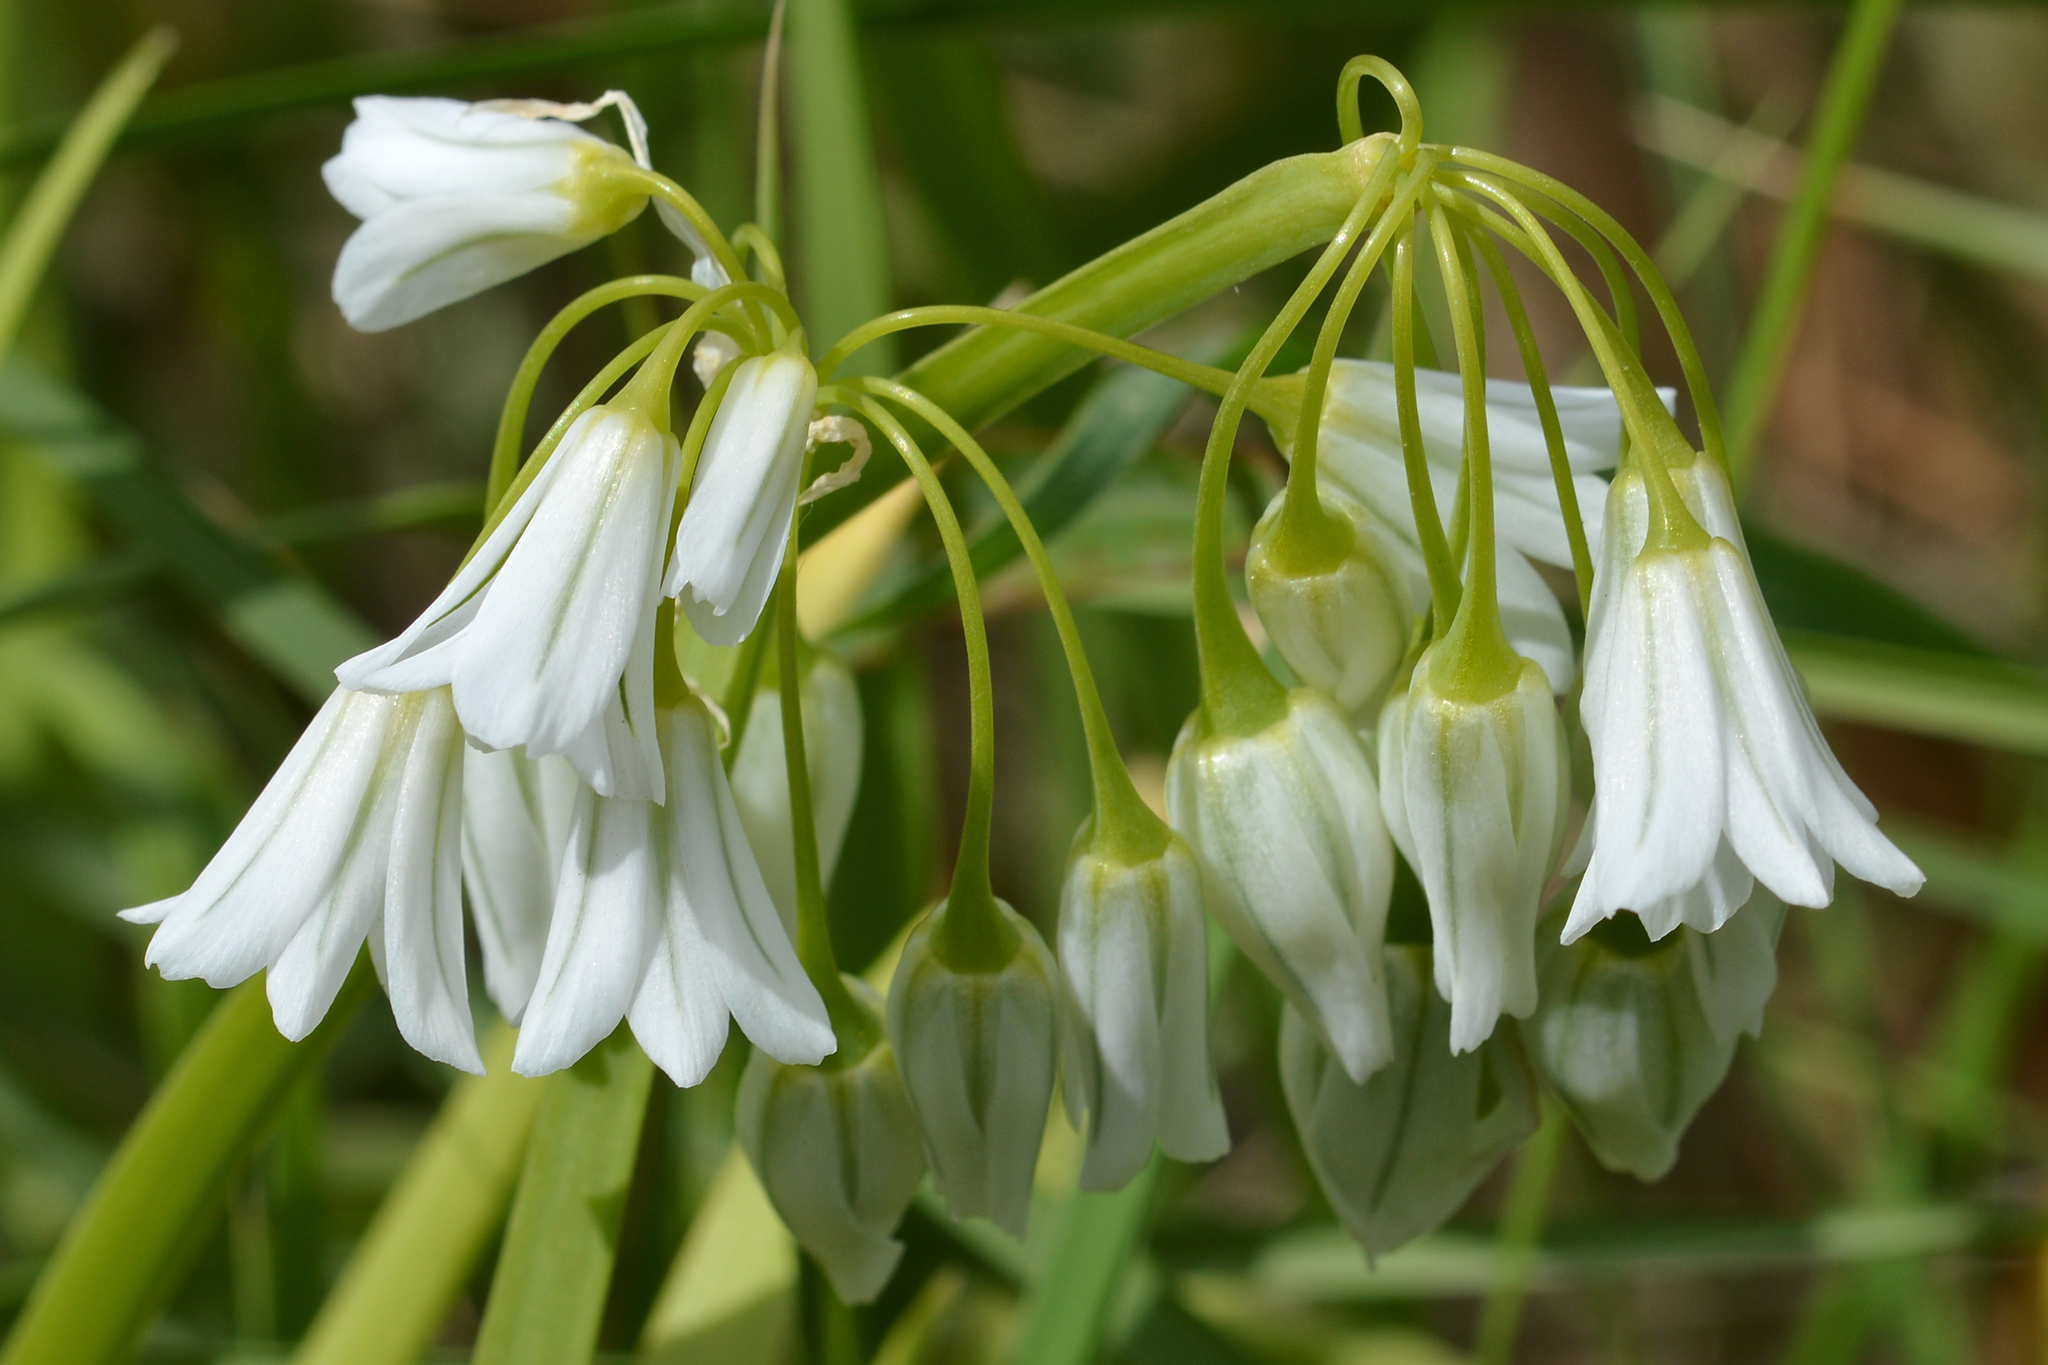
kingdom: Plantae
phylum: Tracheophyta
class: Liliopsida
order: Asparagales
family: Amaryllidaceae
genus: Allium
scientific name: Allium triquetrum
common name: Three-cornered garlic
